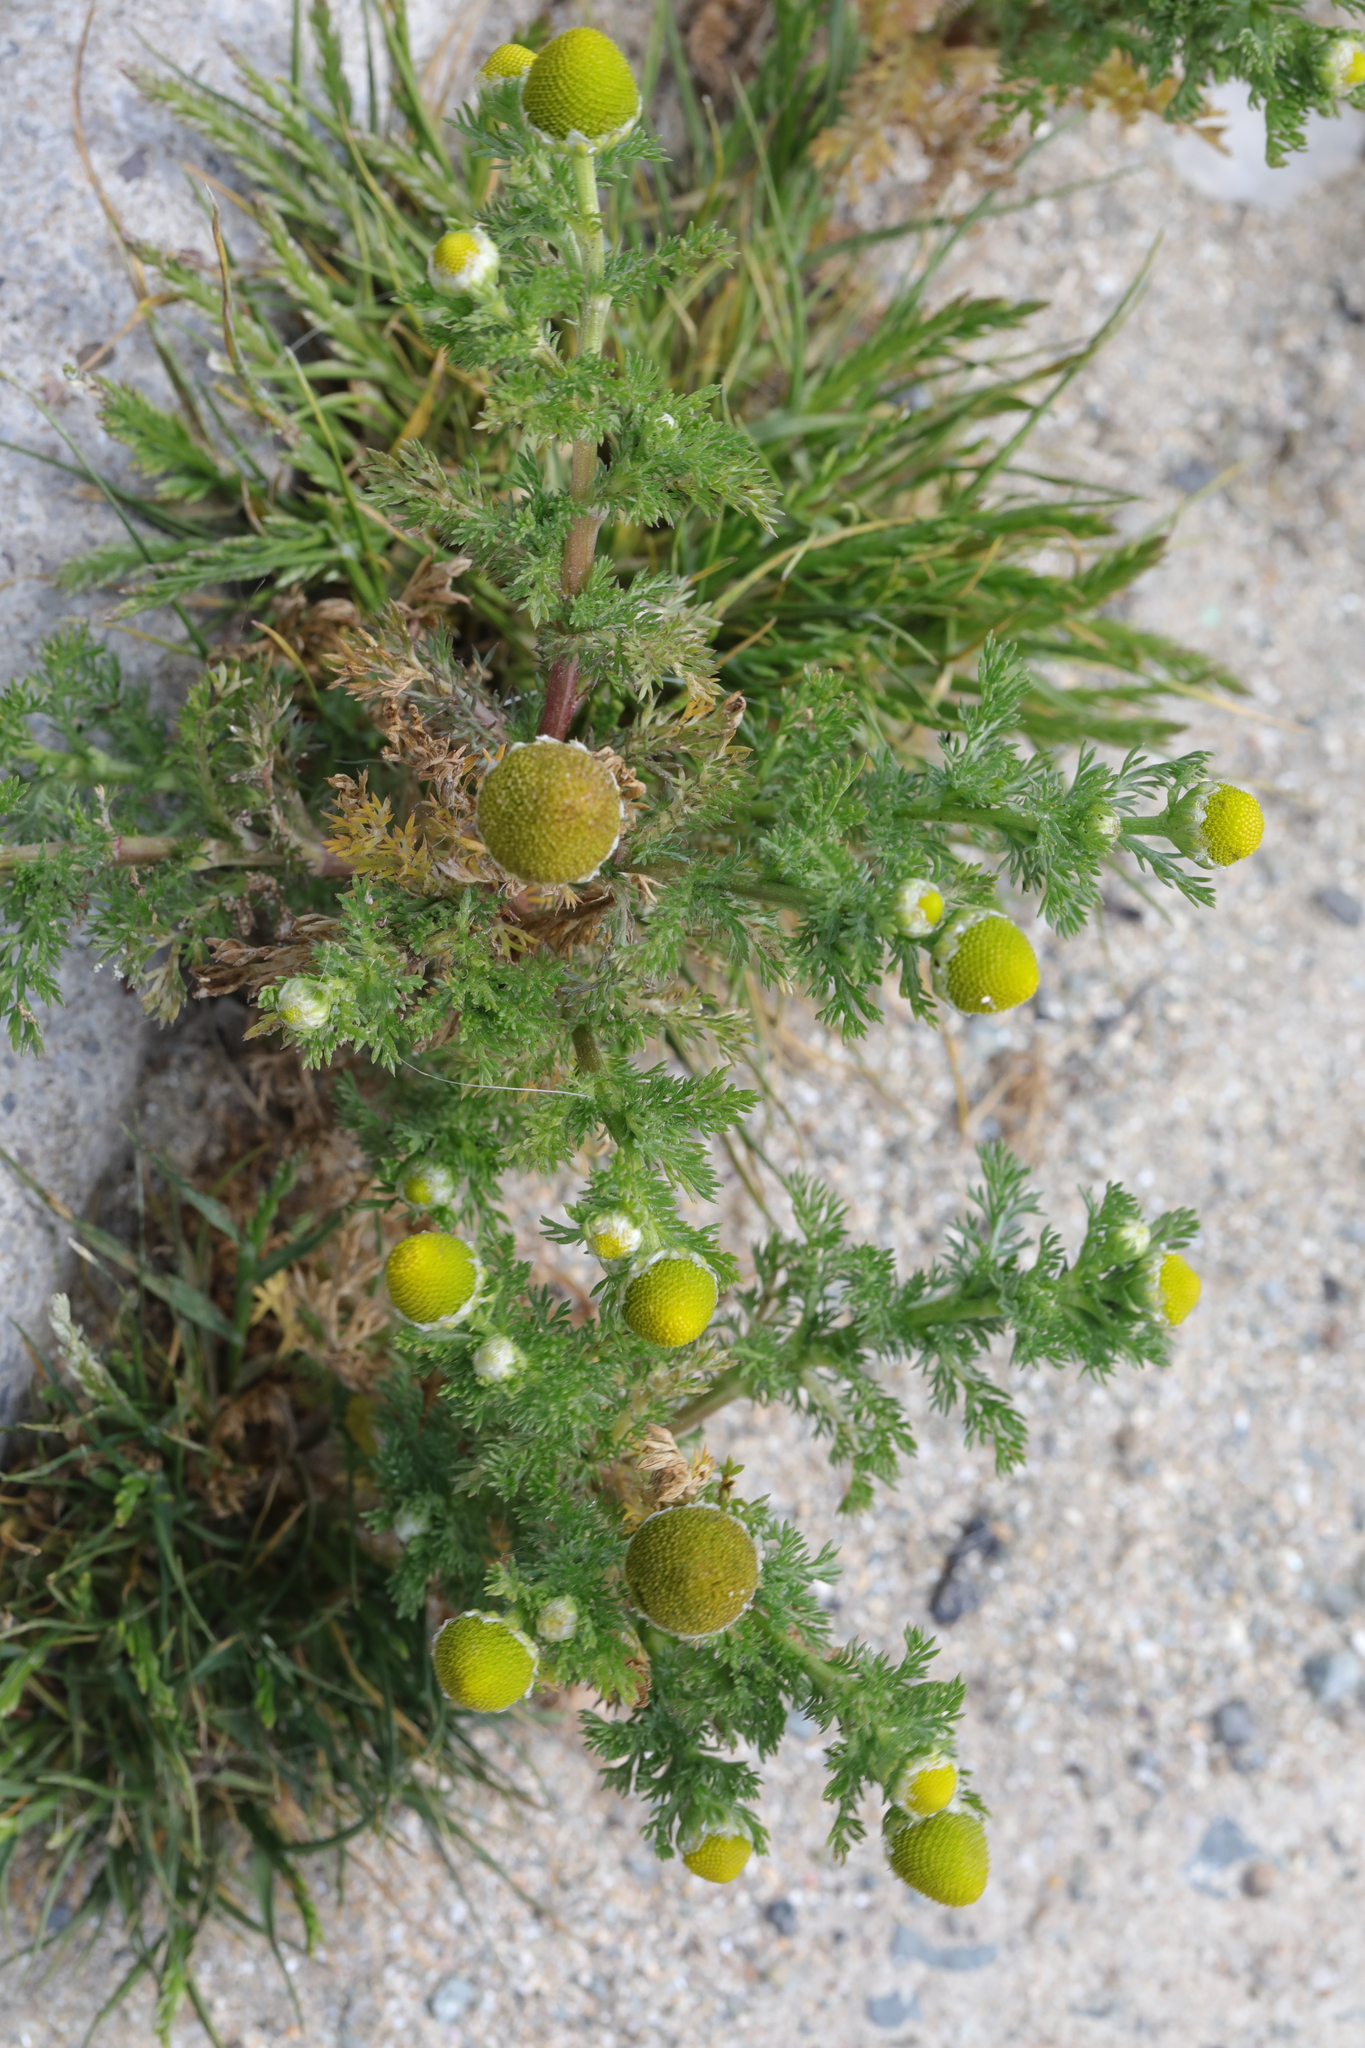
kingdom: Plantae
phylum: Tracheophyta
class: Magnoliopsida
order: Asterales
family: Asteraceae
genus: Matricaria
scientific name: Matricaria discoidea
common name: Disc mayweed
